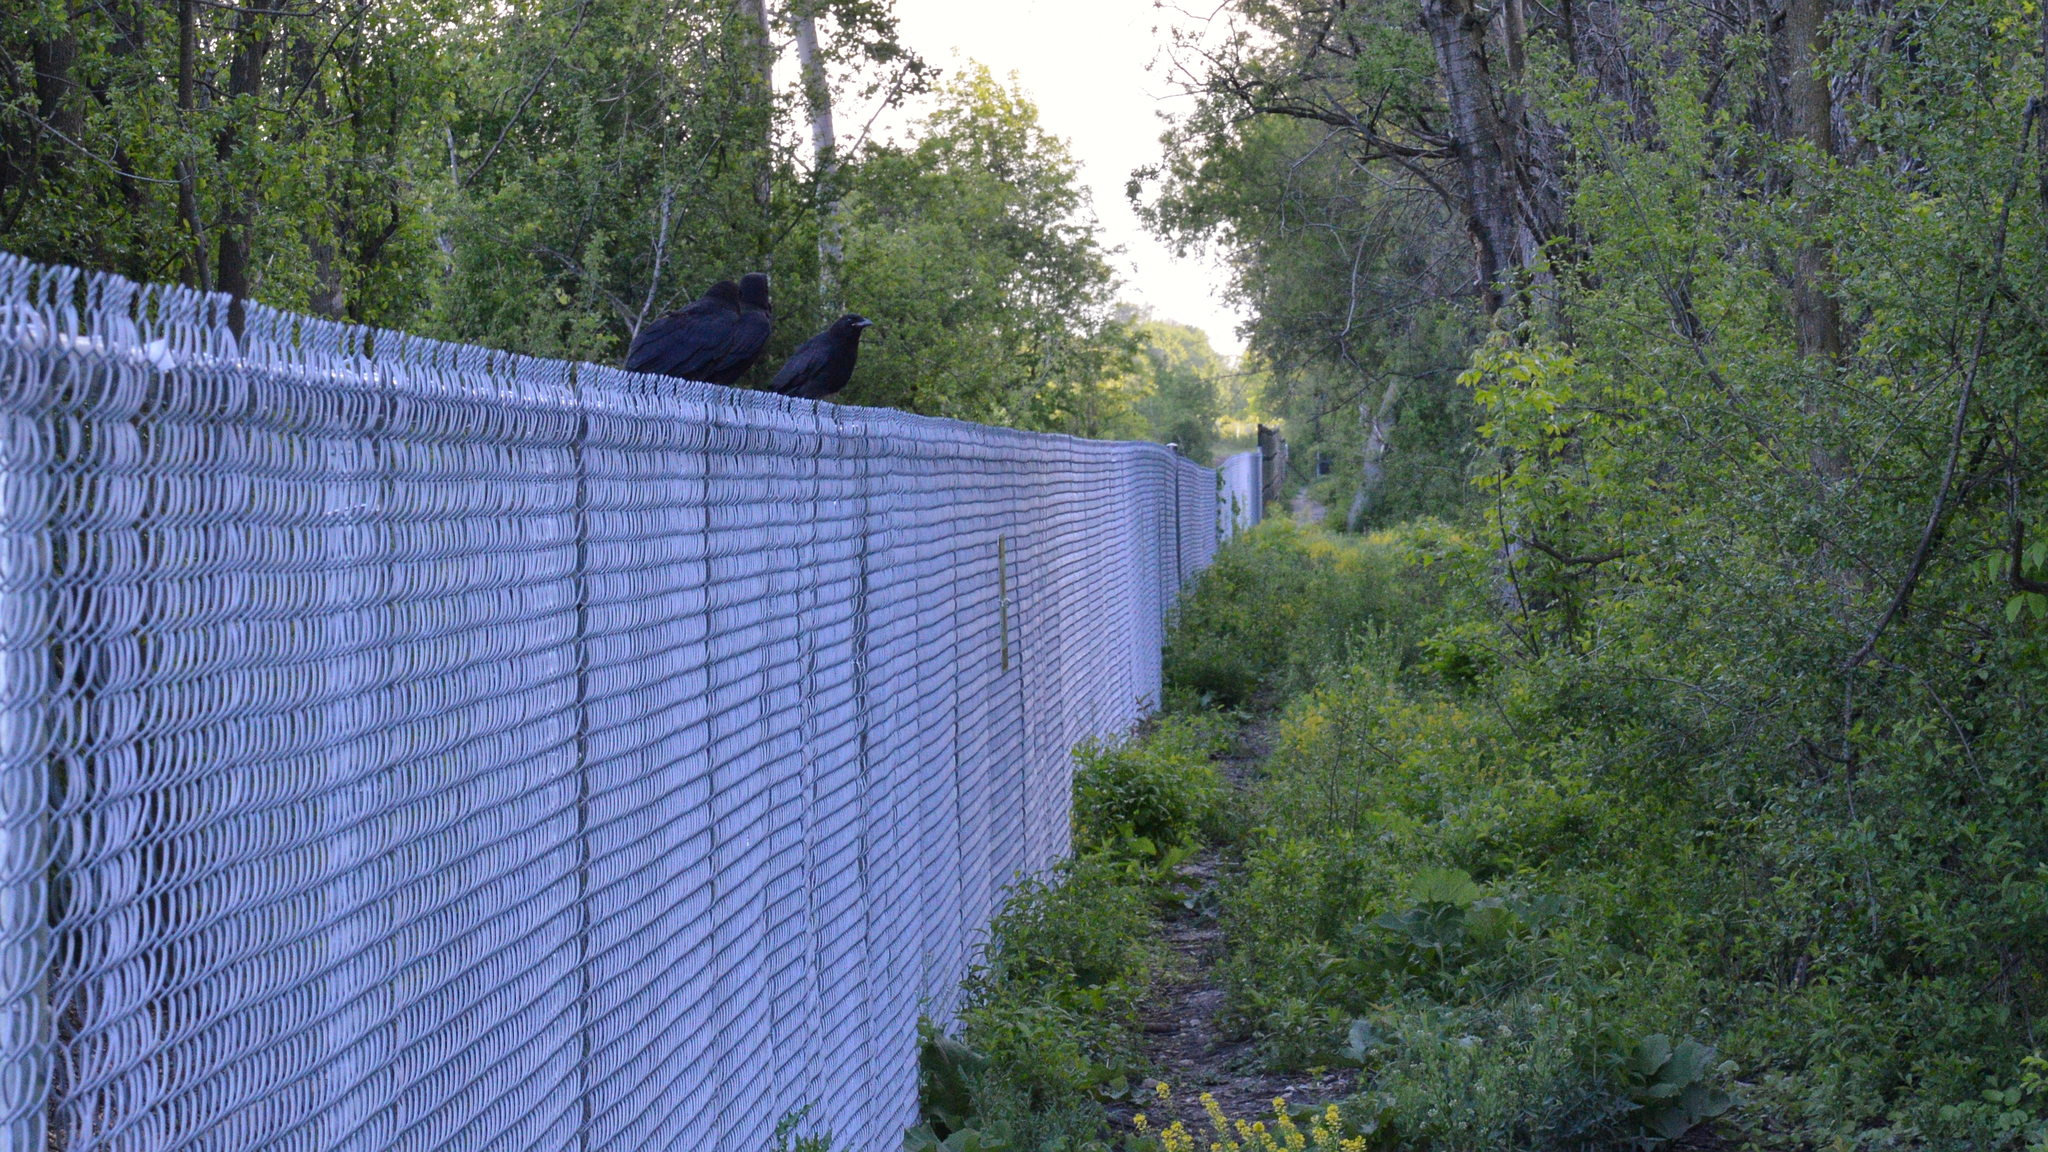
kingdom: Animalia
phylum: Chordata
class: Aves
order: Passeriformes
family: Corvidae
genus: Corvus
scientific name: Corvus brachyrhynchos
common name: American crow
